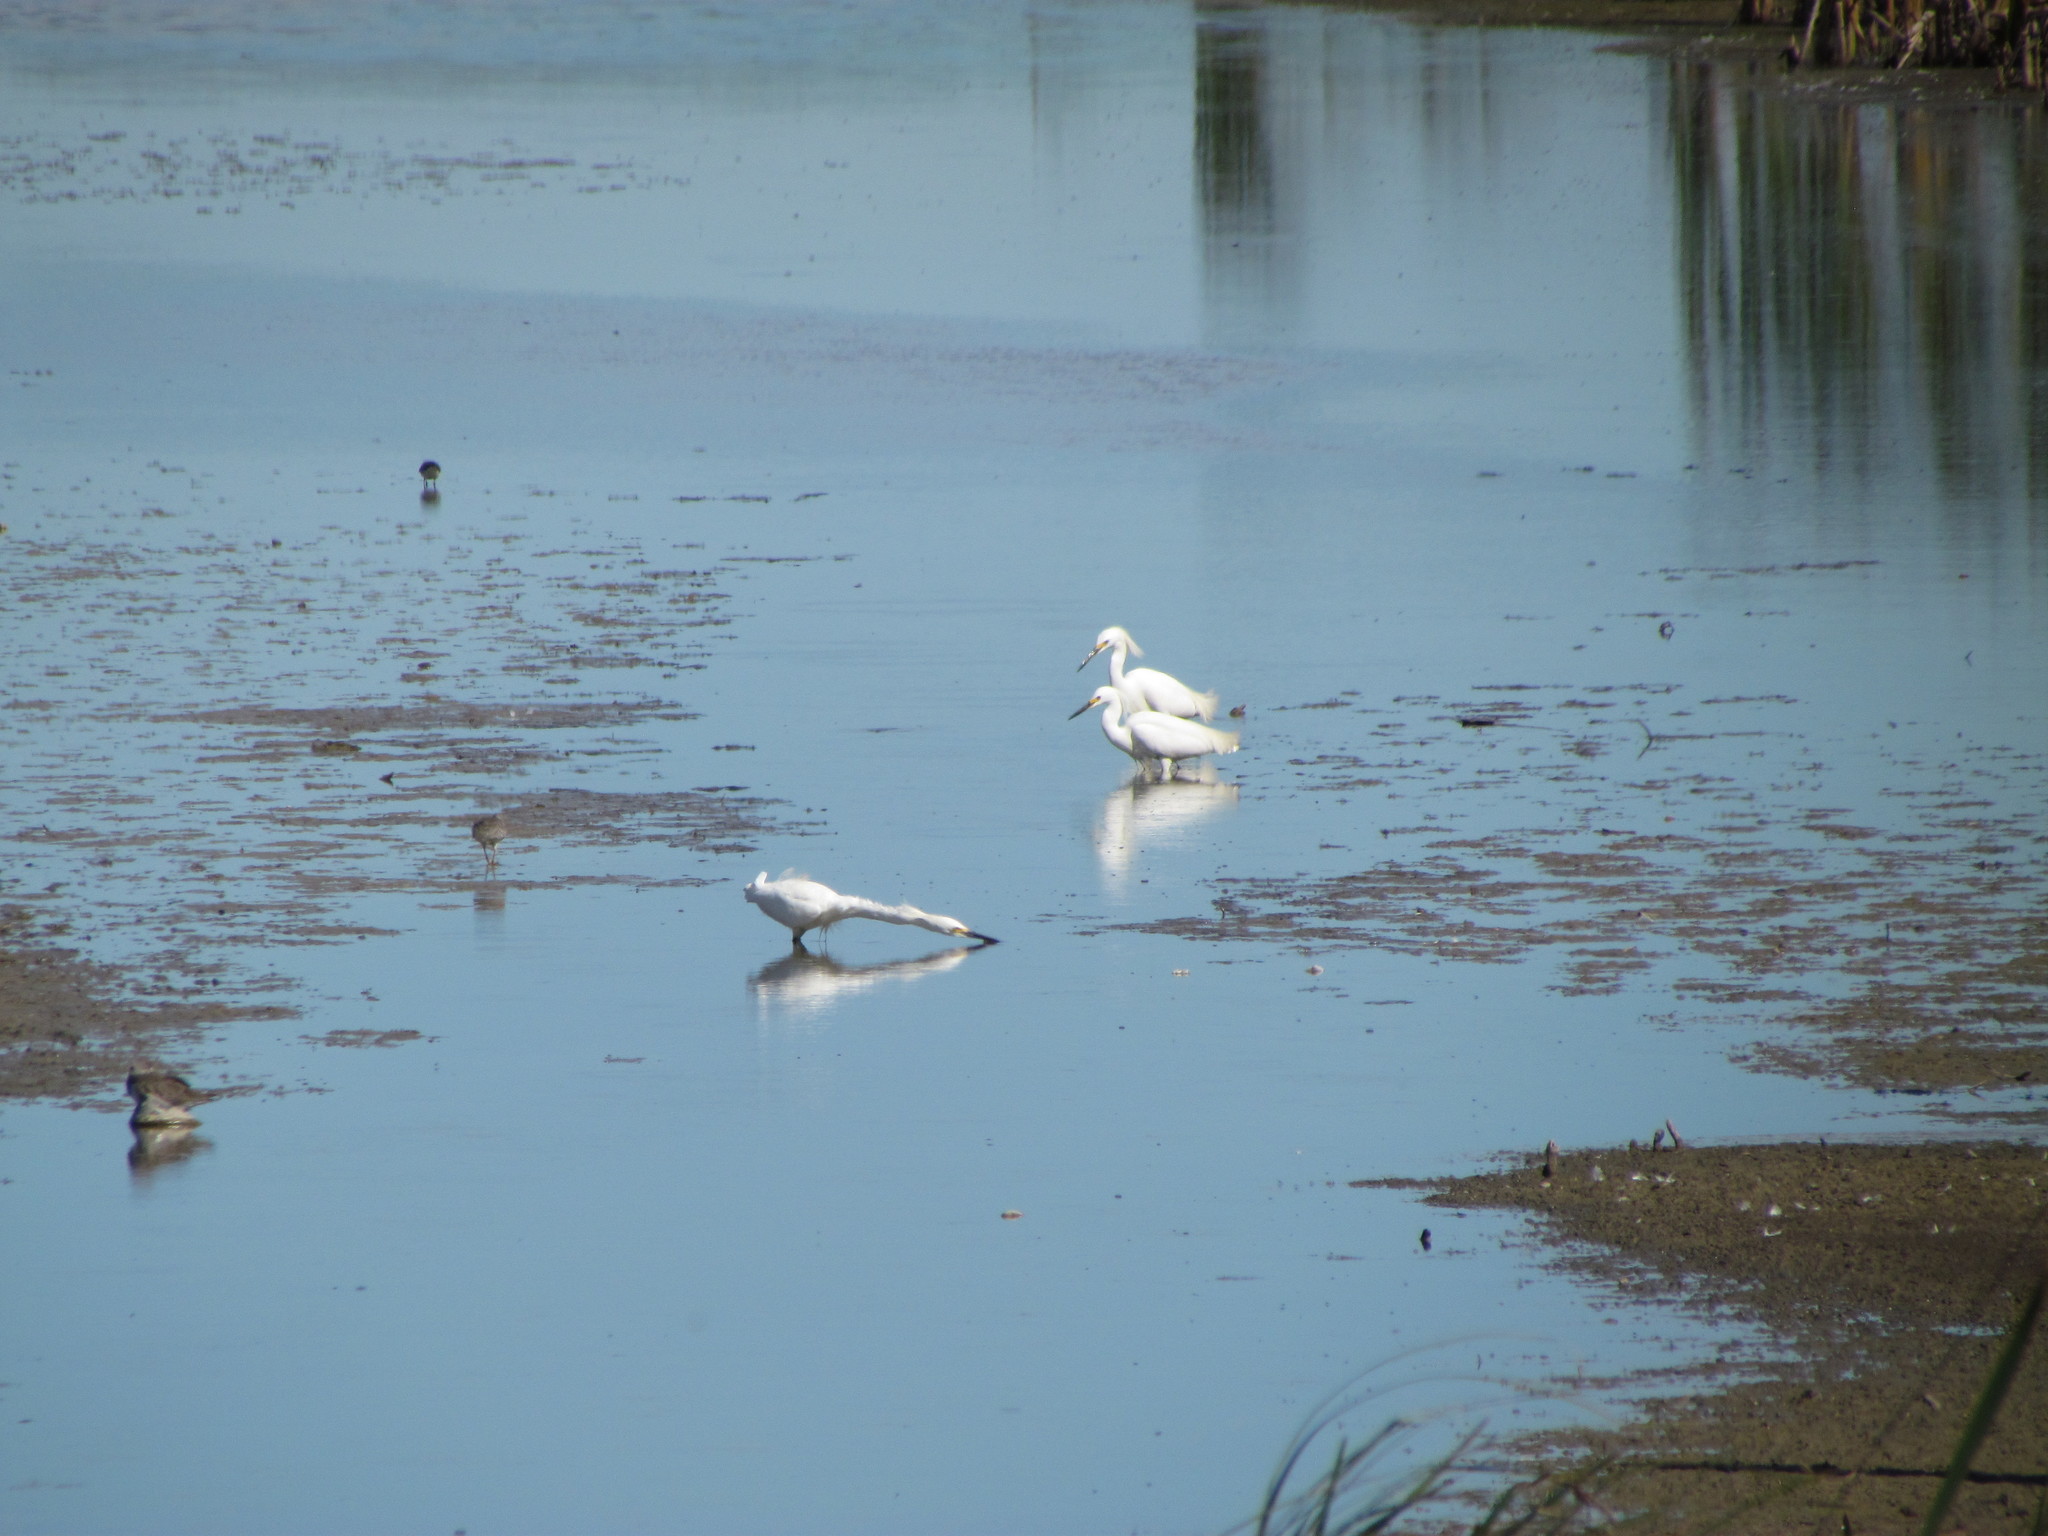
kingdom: Animalia
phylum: Chordata
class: Aves
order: Pelecaniformes
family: Ardeidae
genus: Egretta
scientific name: Egretta thula
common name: Snowy egret
